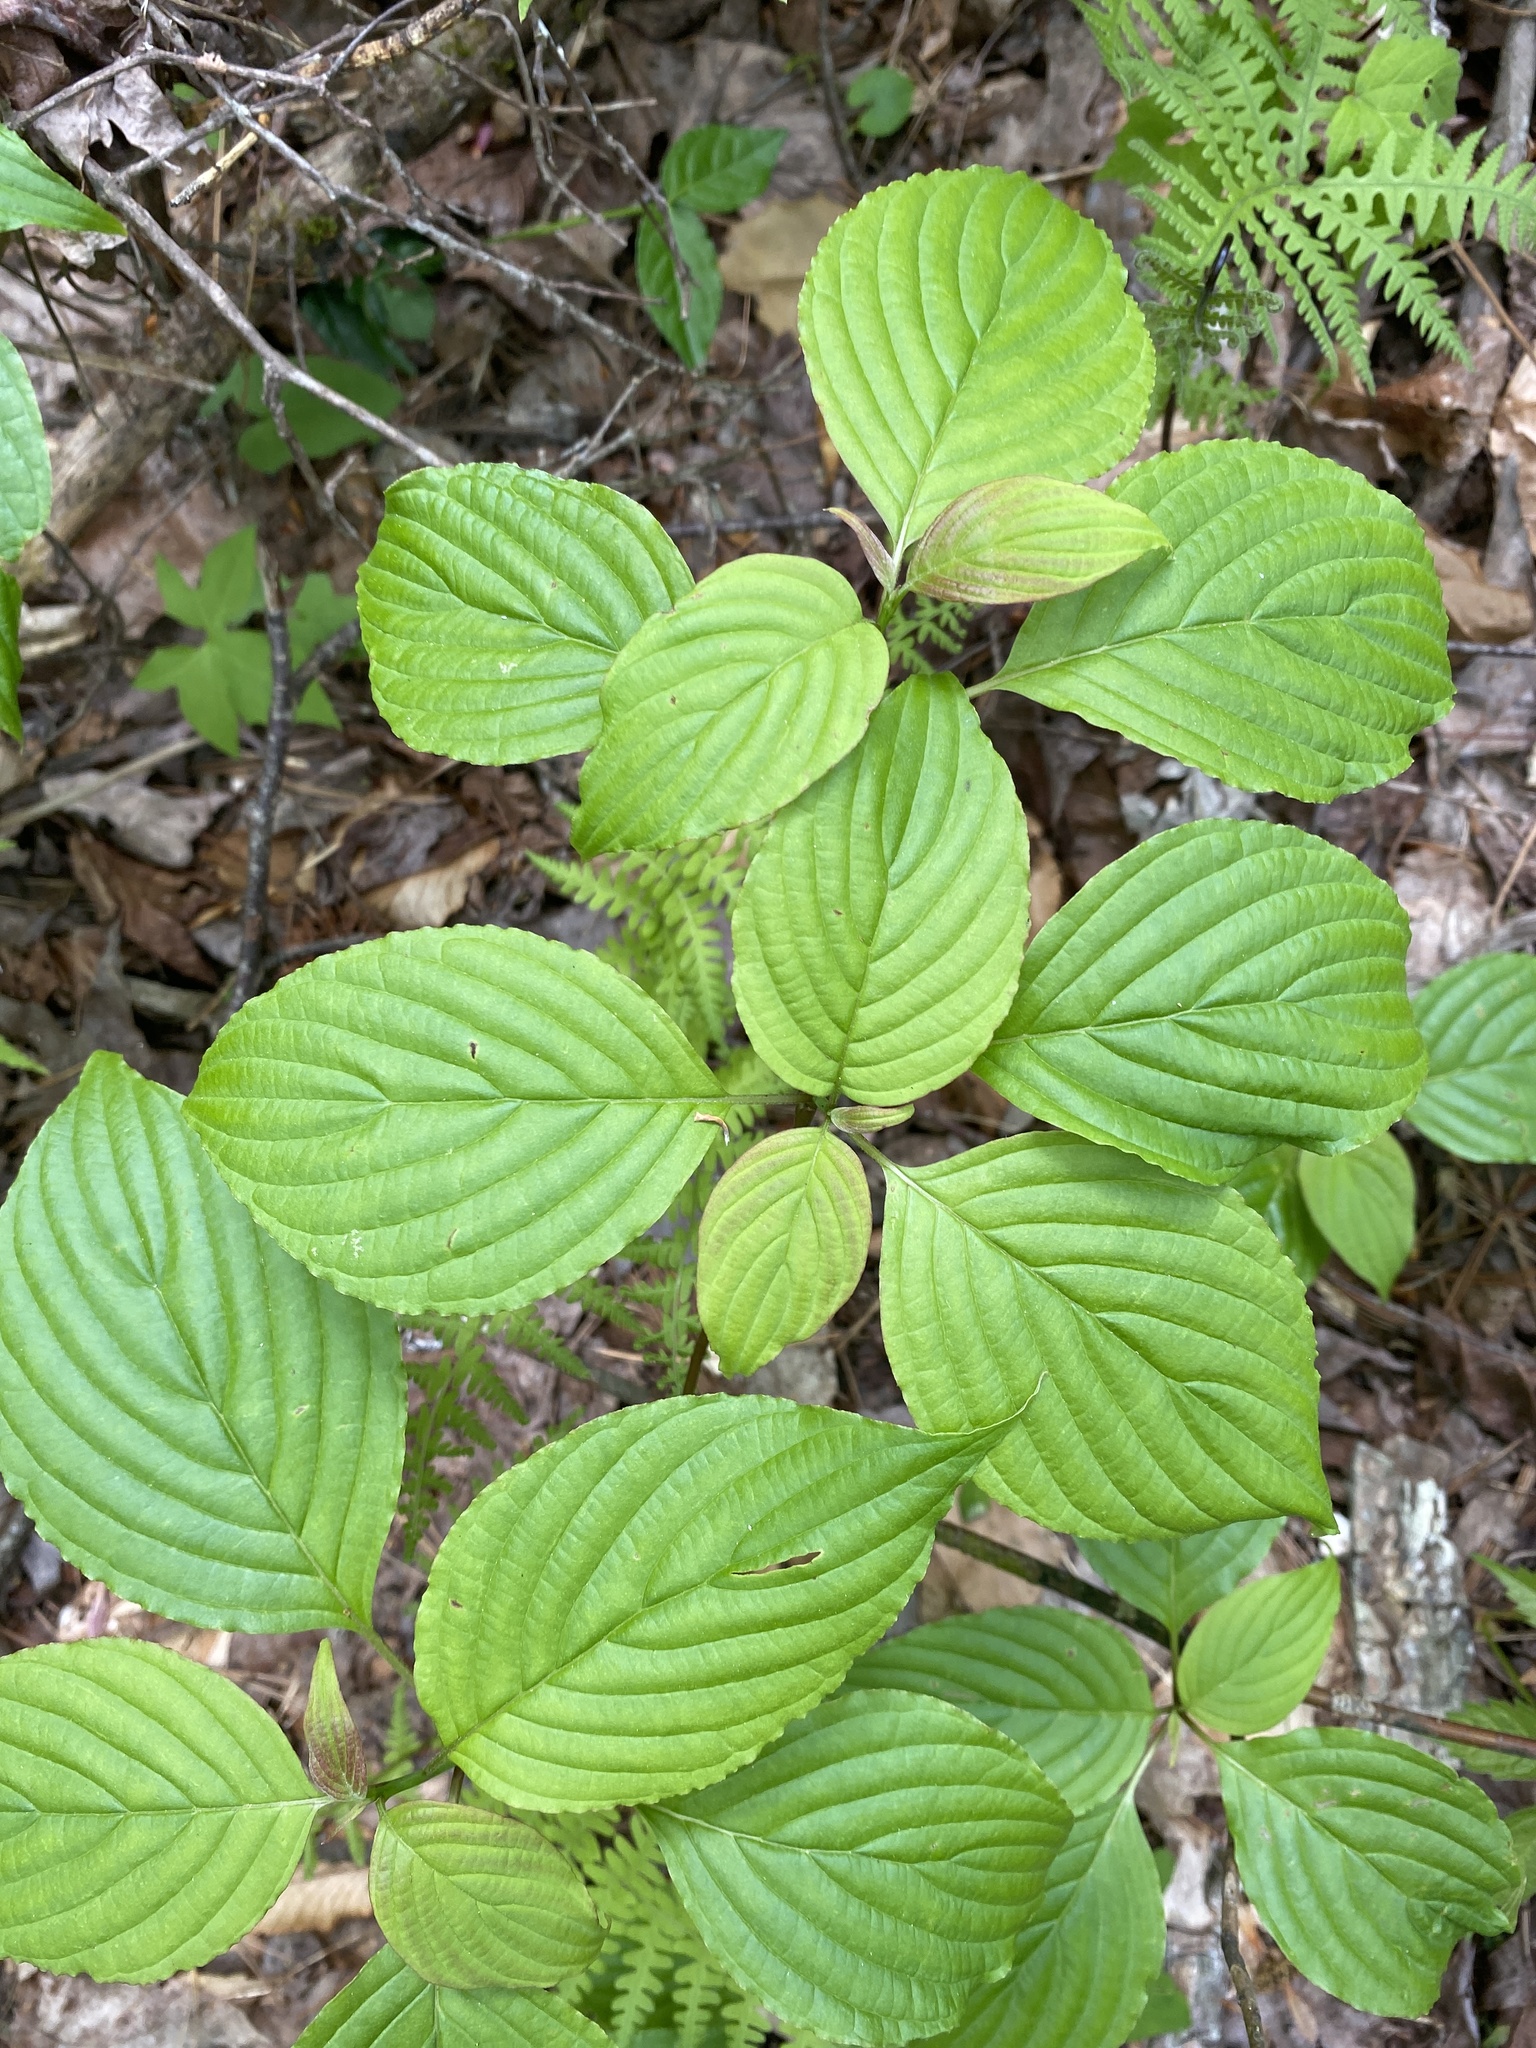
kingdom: Plantae
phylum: Tracheophyta
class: Magnoliopsida
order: Cornales
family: Cornaceae
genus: Cornus
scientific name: Cornus alternifolia
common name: Pagoda dogwood
